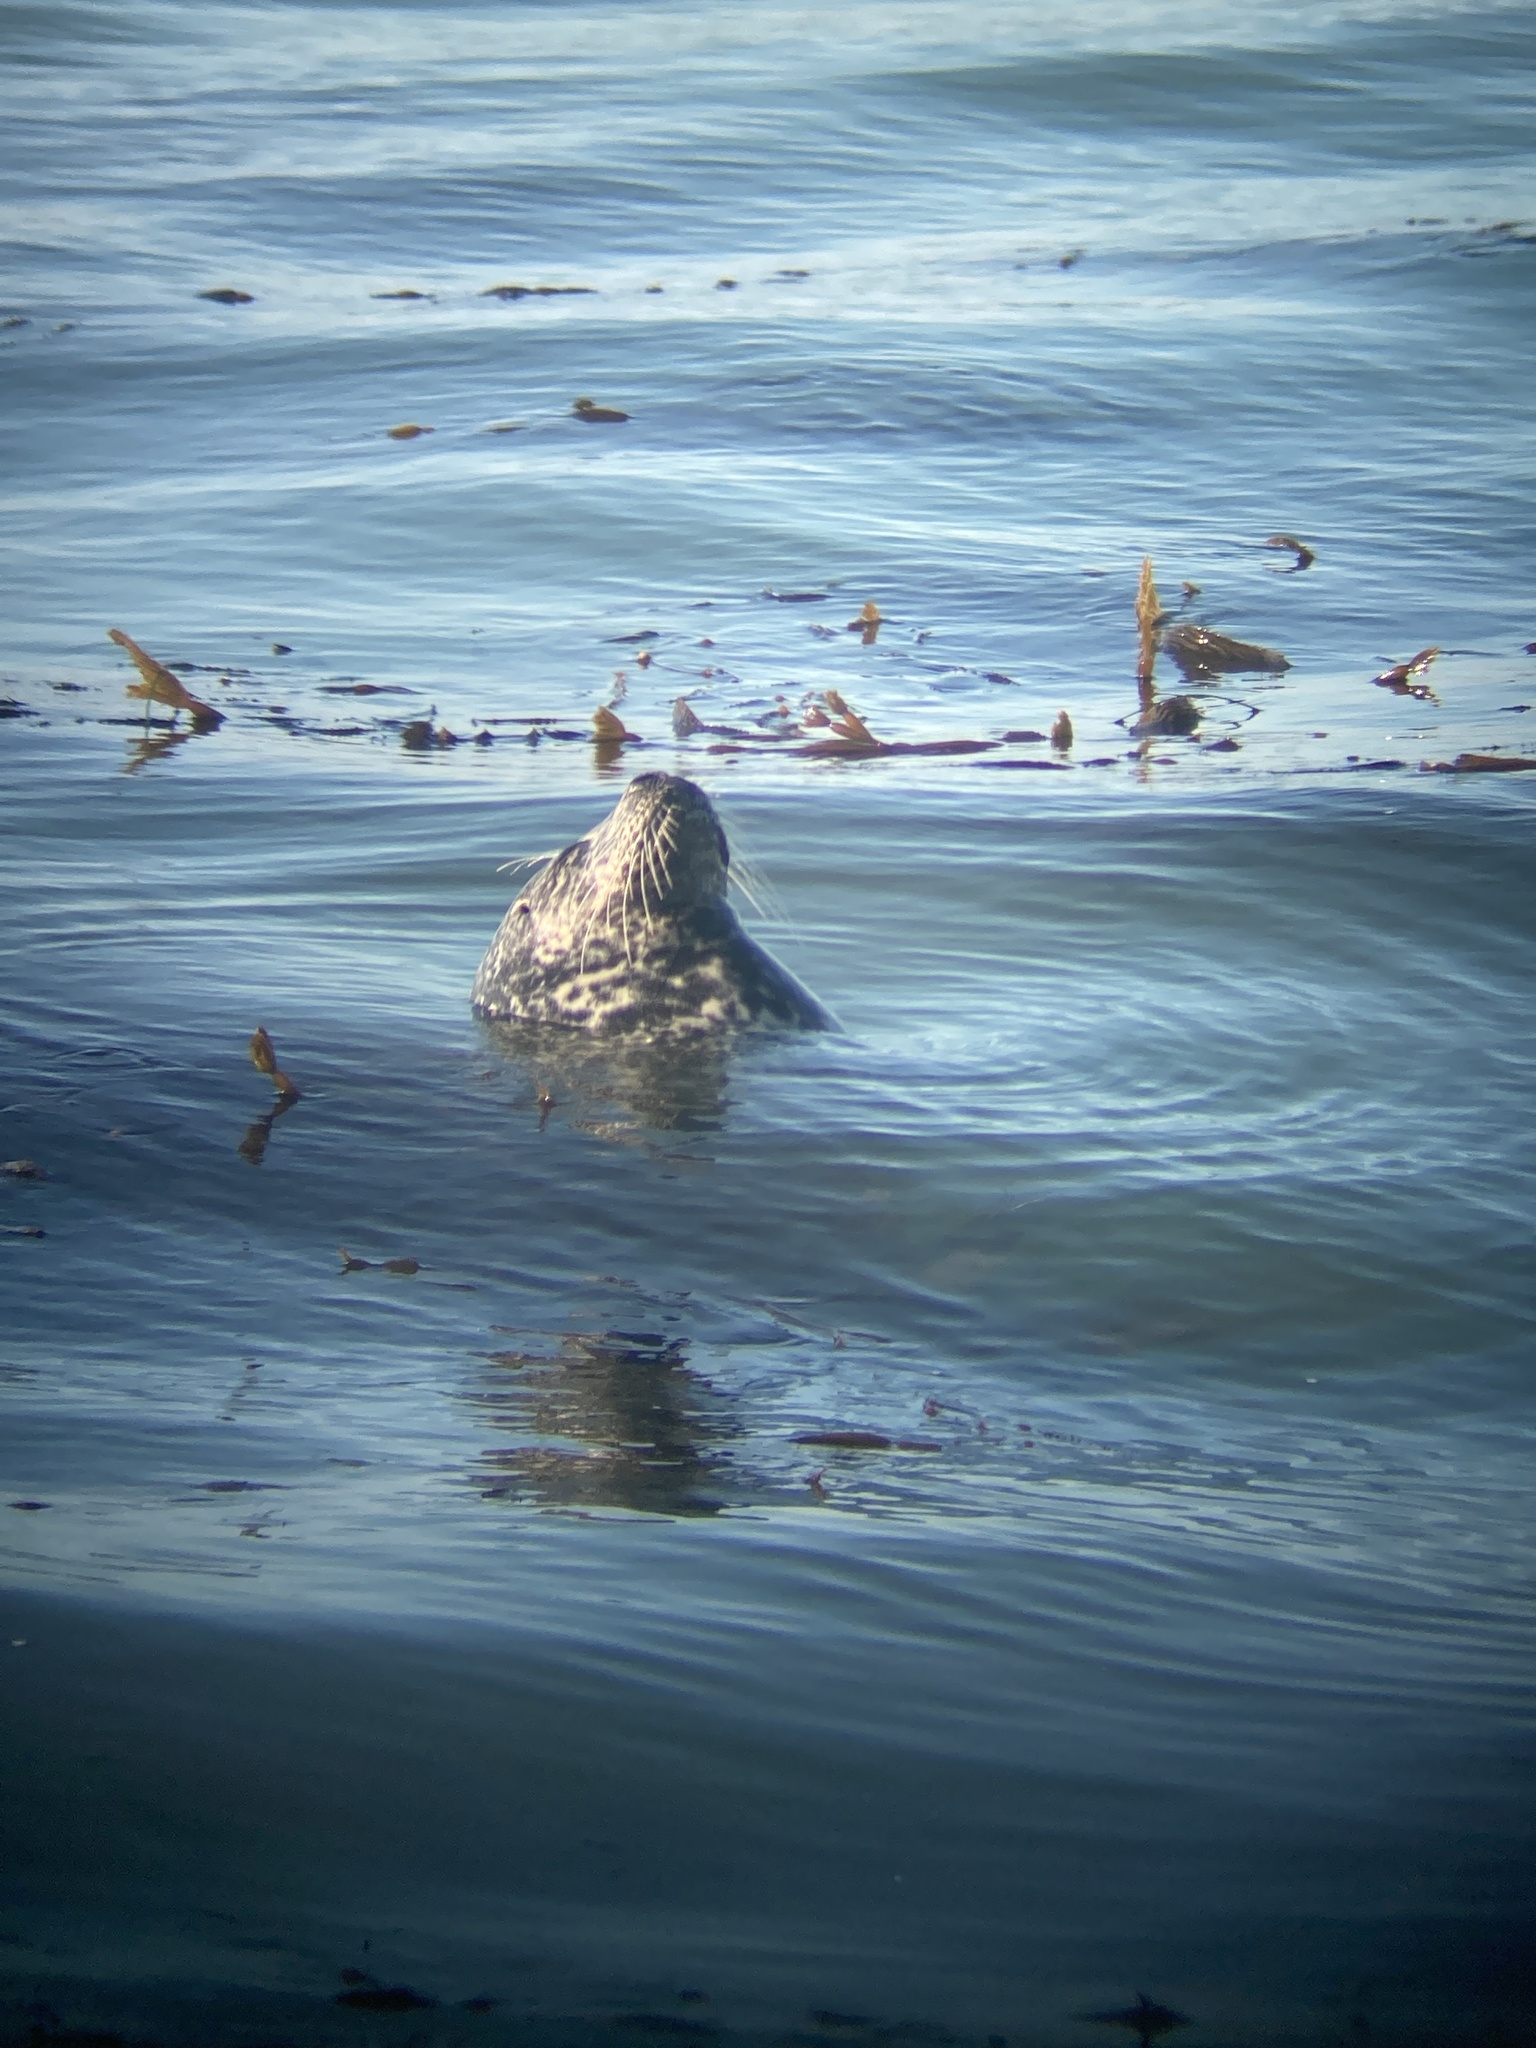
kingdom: Animalia
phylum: Chordata
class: Mammalia
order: Carnivora
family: Phocidae
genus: Phoca
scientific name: Phoca vitulina
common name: Harbor seal
